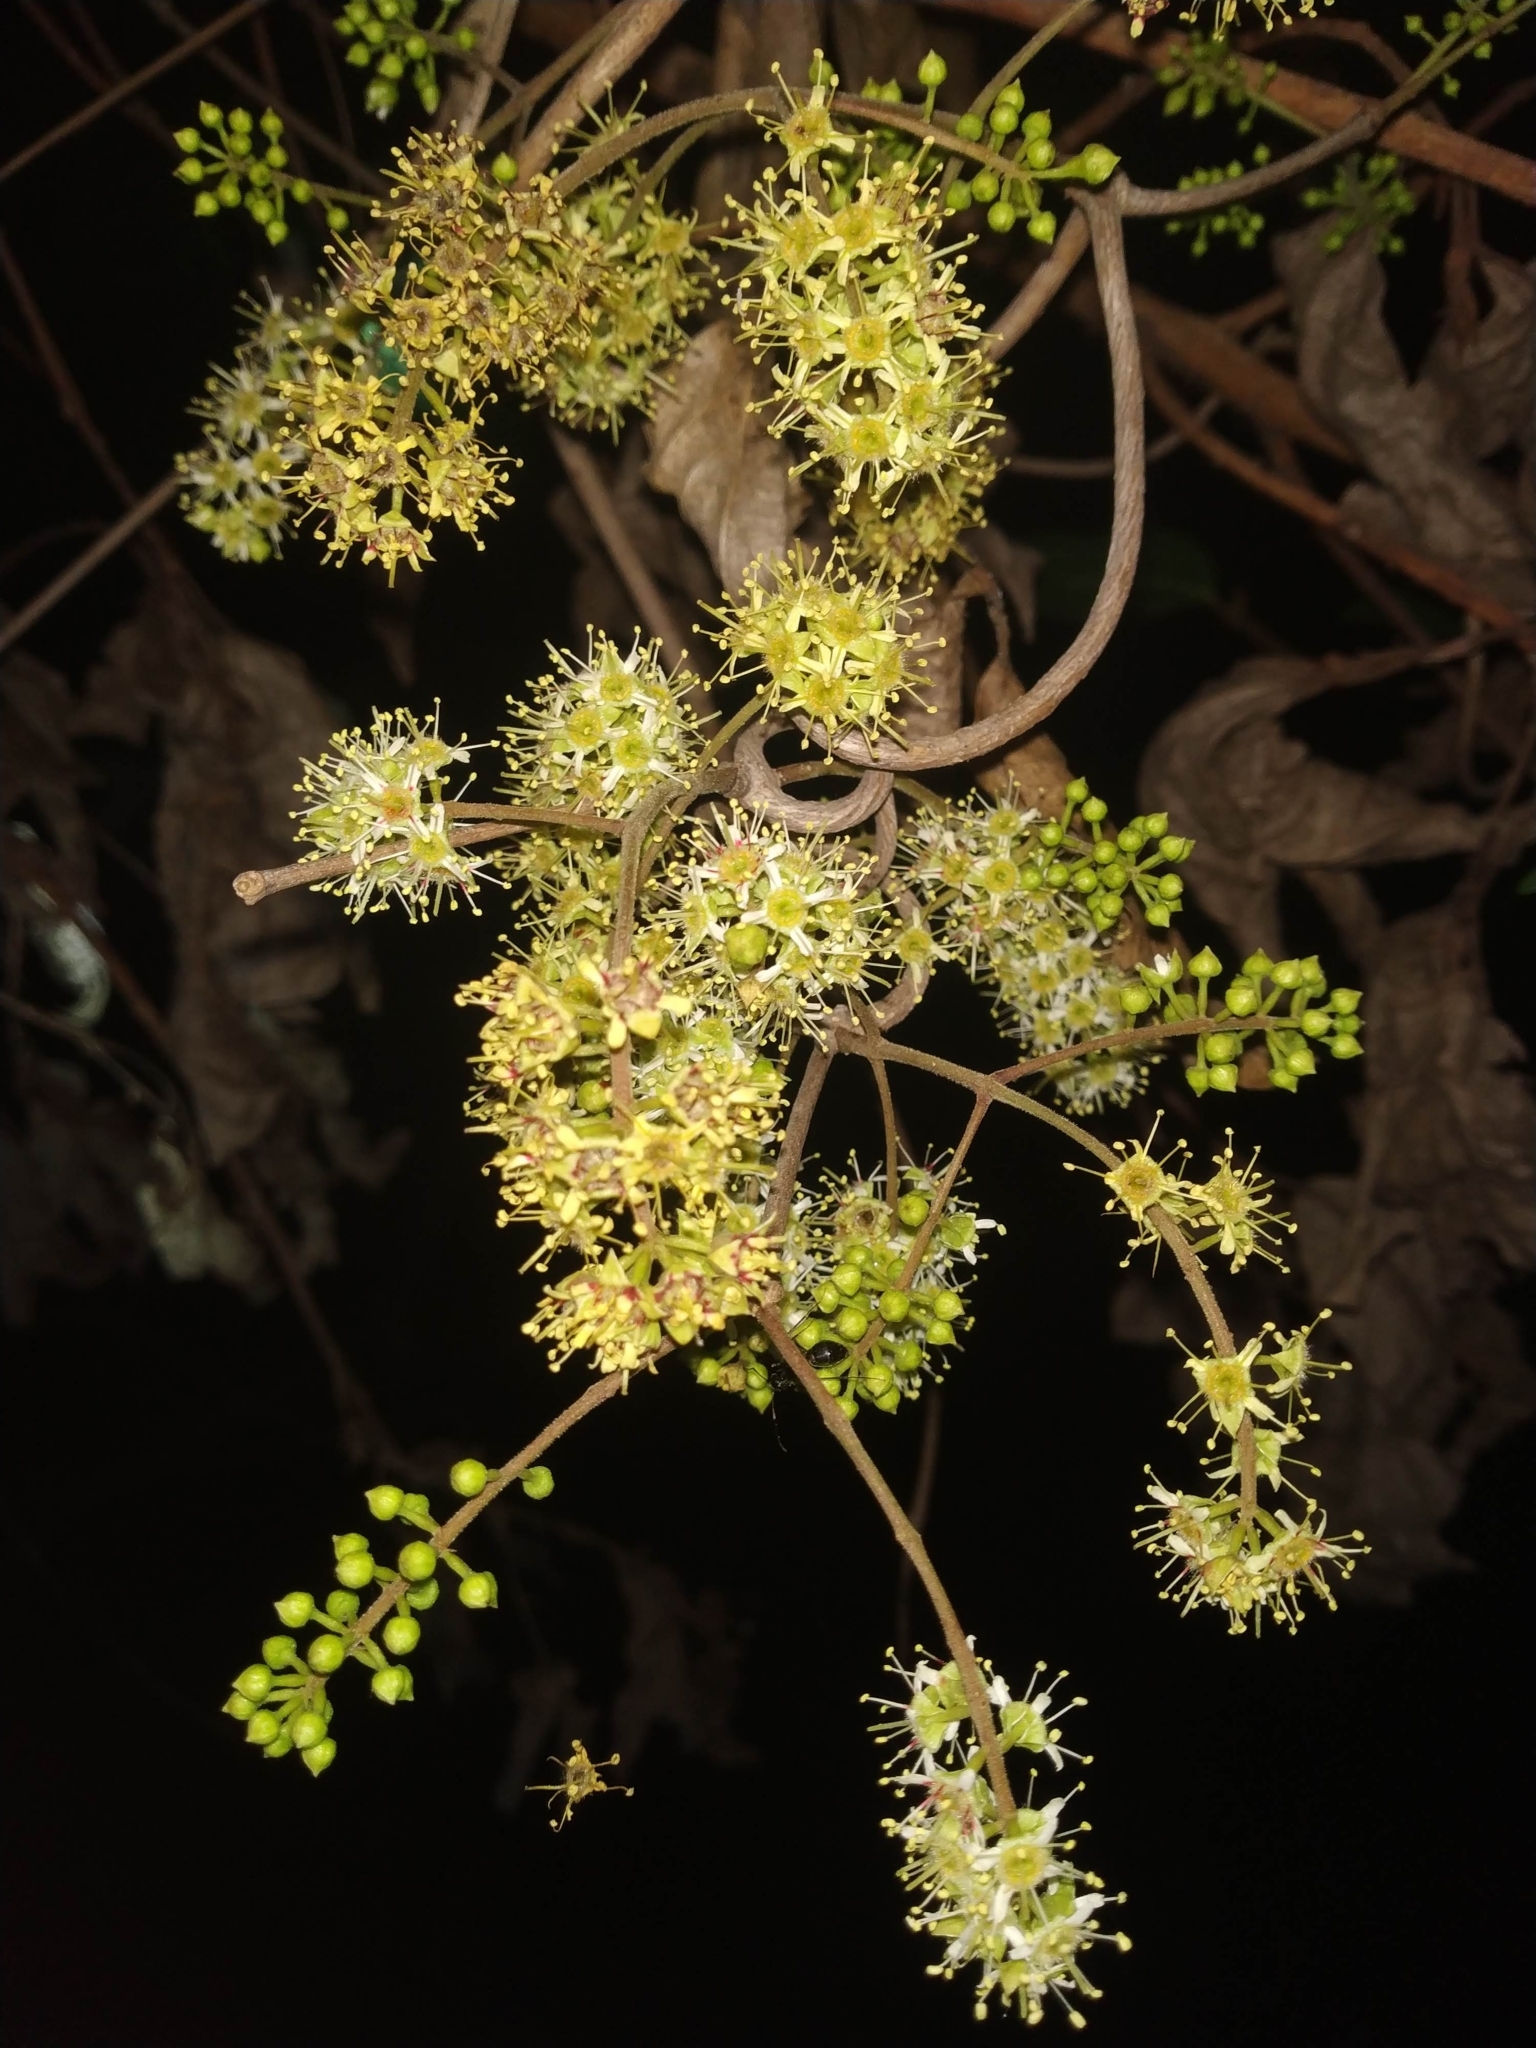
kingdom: Plantae
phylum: Tracheophyta
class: Magnoliopsida
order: Myrtales
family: Combretaceae
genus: Combretum
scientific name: Combretum albidum
